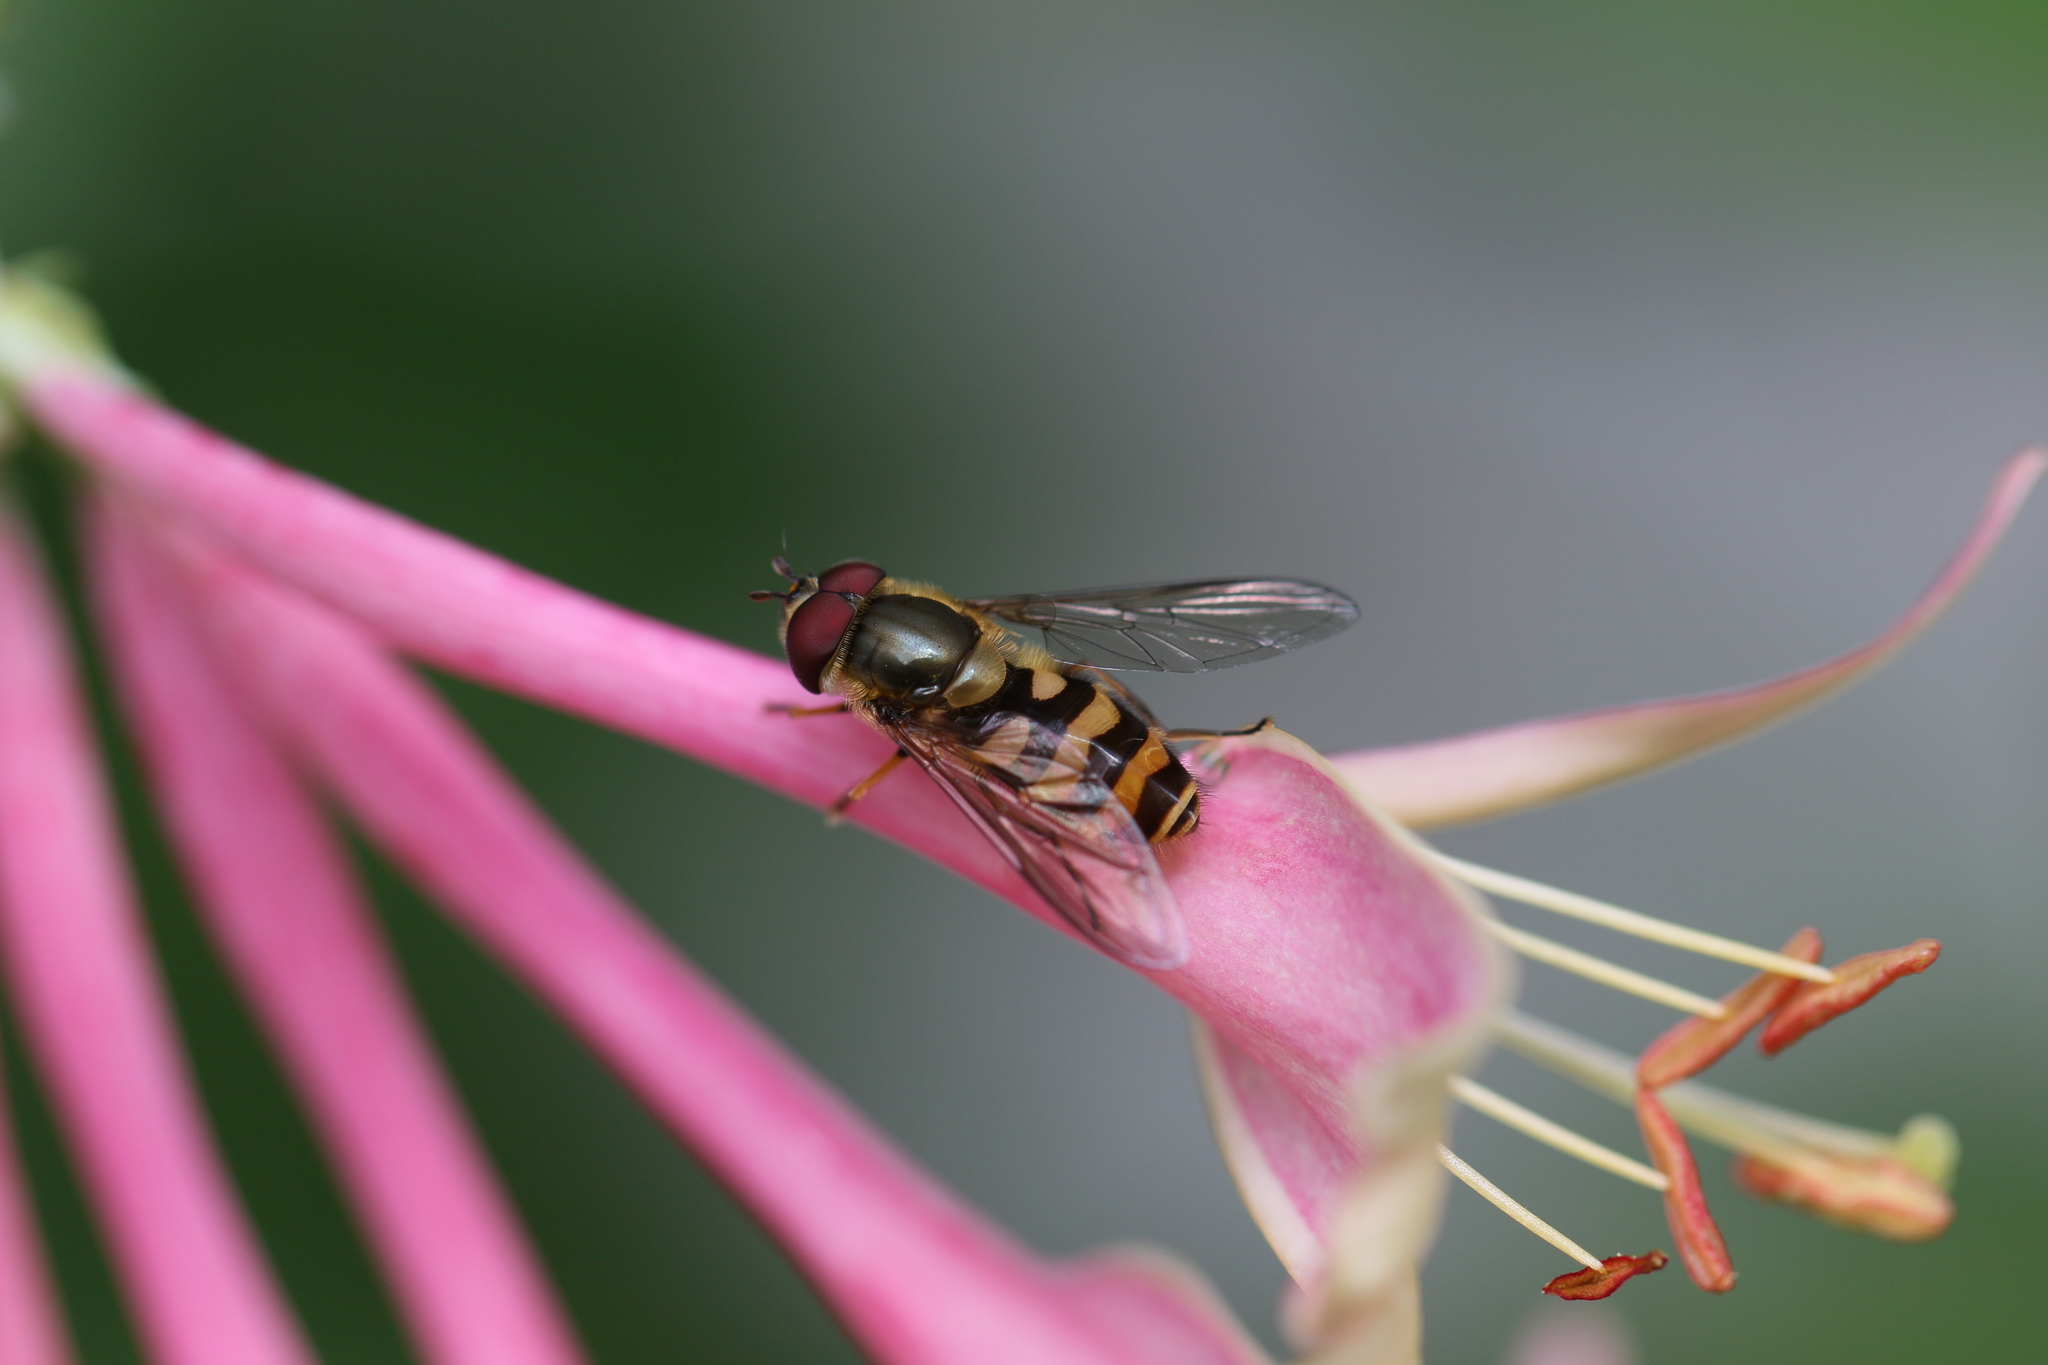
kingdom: Animalia
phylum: Arthropoda
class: Insecta
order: Diptera
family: Syrphidae
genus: Syrphus
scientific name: Syrphus torvus
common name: Hairy-eyed flower fly
